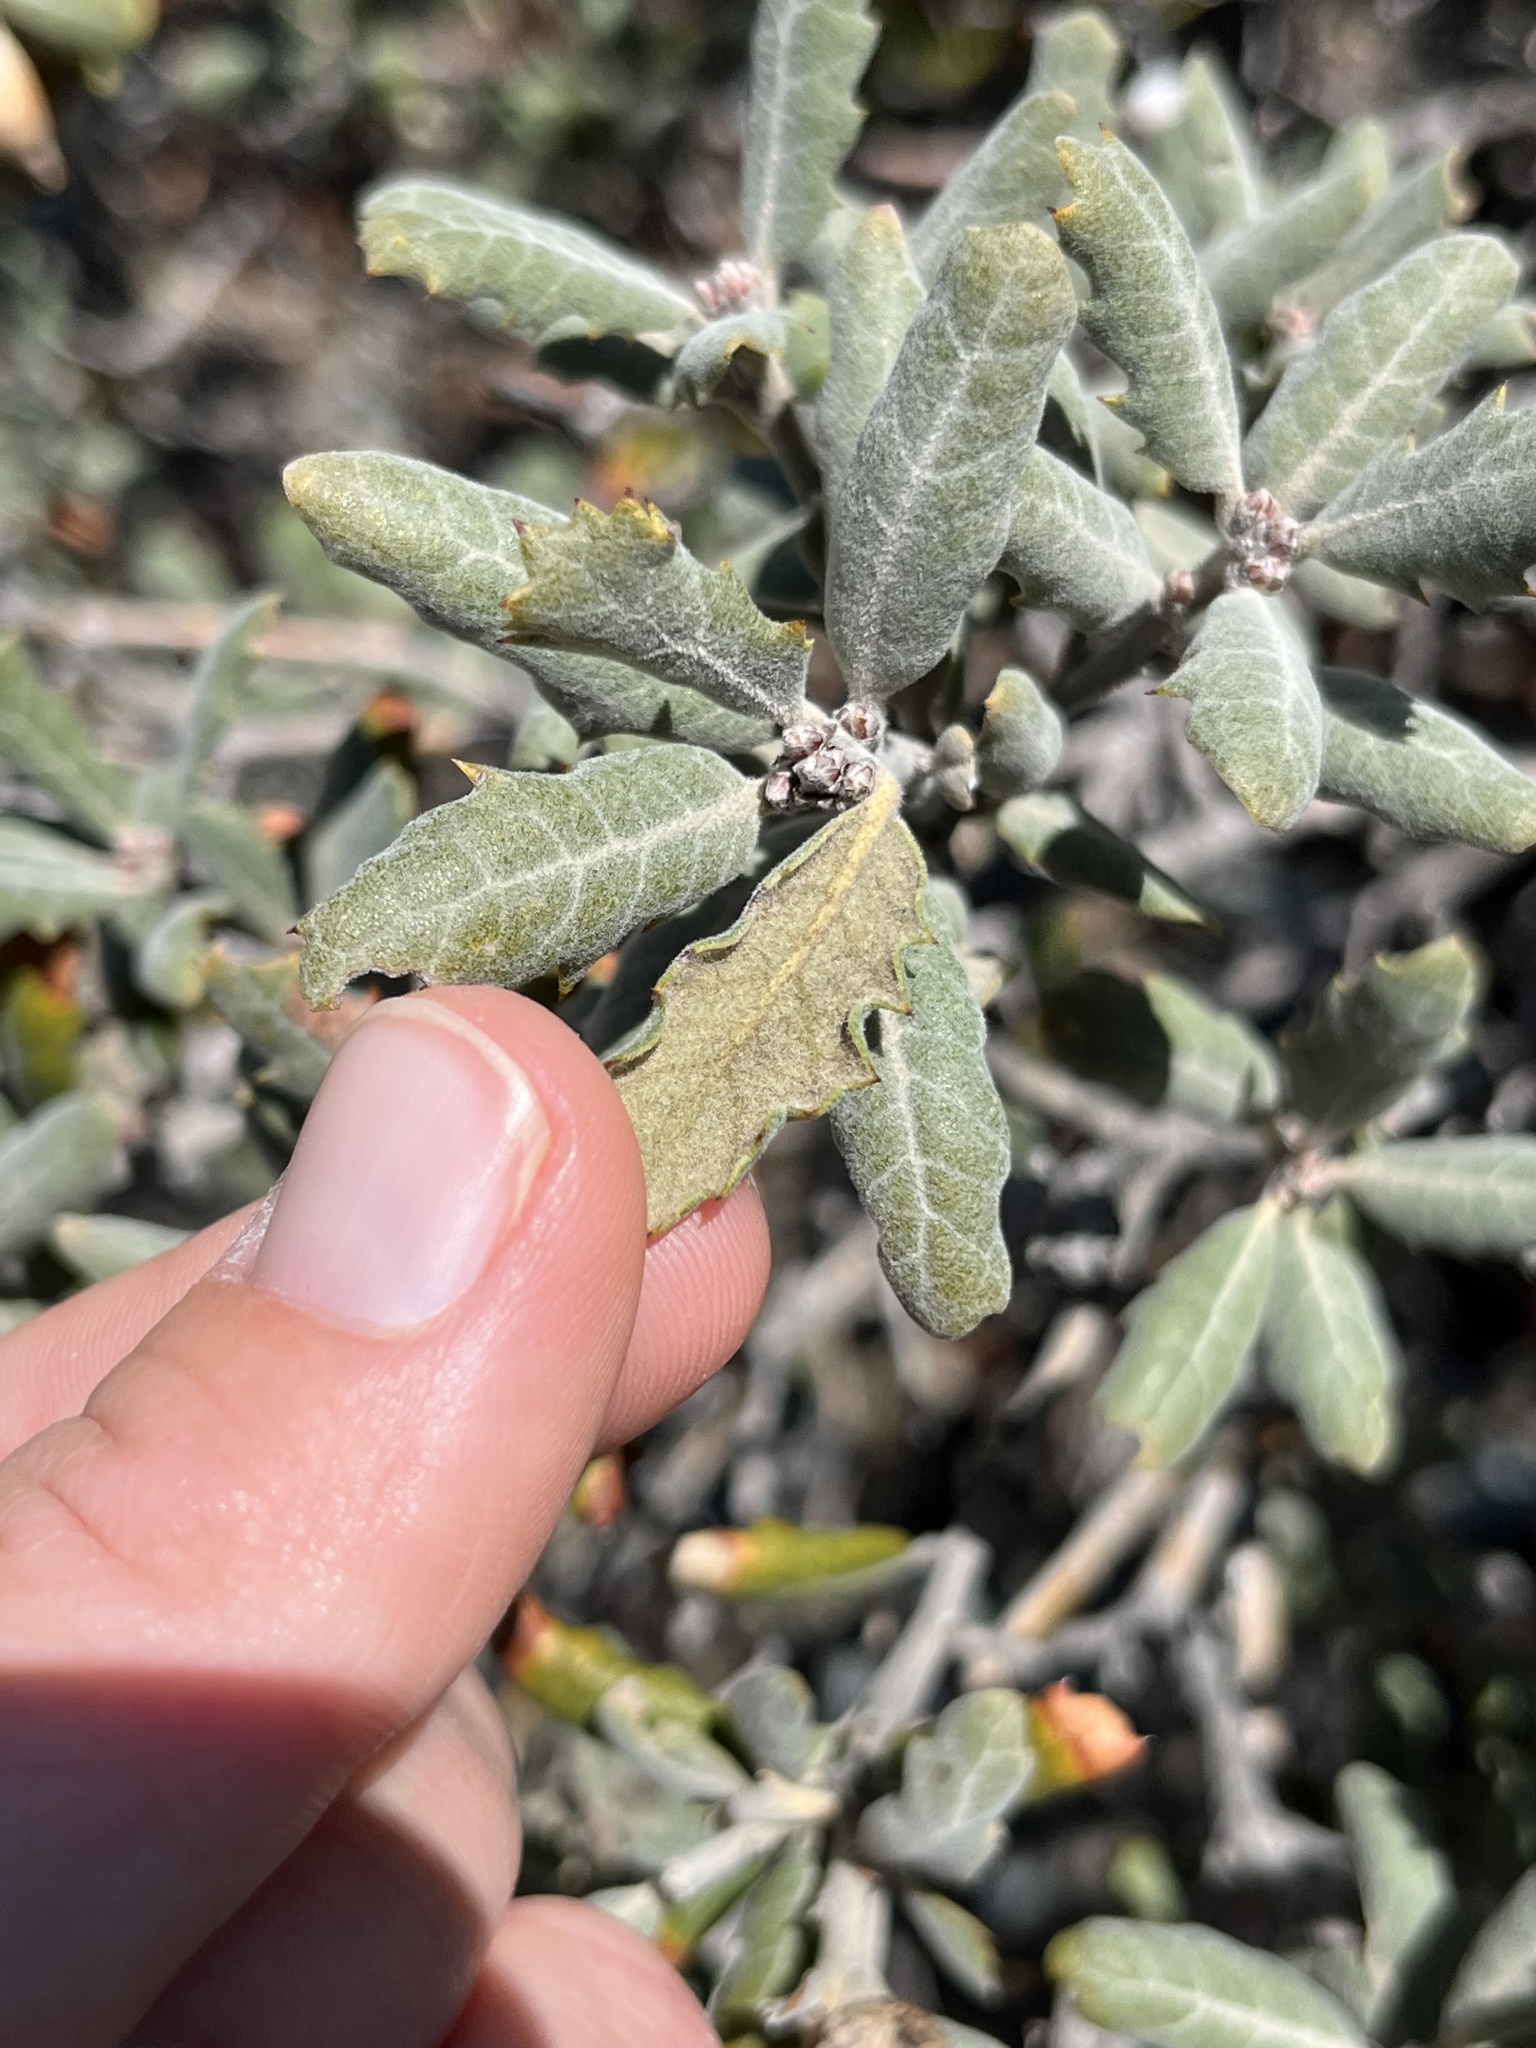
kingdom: Plantae
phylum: Tracheophyta
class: Magnoliopsida
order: Fagales
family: Fagaceae
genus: Quercus
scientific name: Quercus durata
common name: Leather oak
